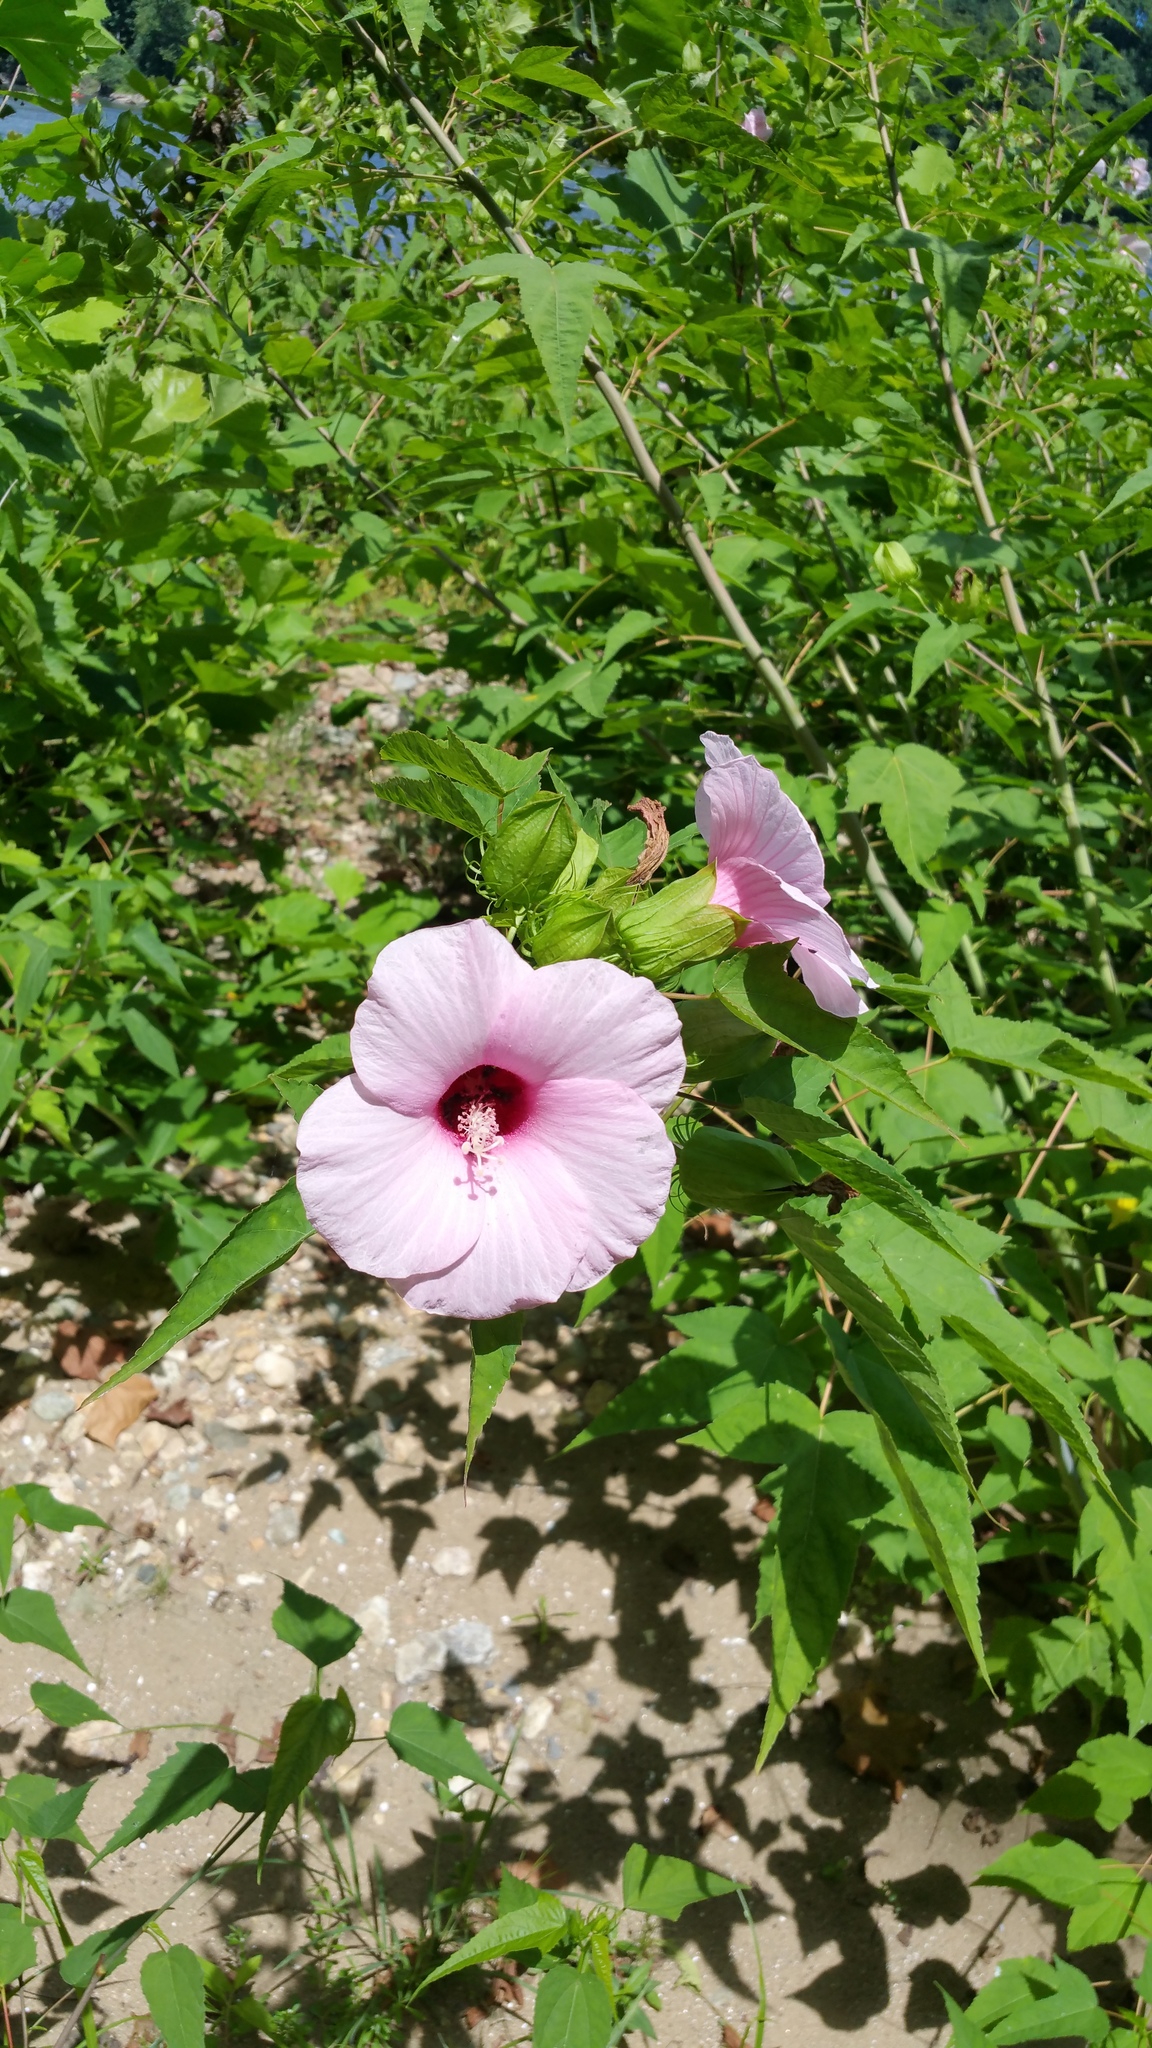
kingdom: Plantae
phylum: Tracheophyta
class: Magnoliopsida
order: Malvales
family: Malvaceae
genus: Hibiscus
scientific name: Hibiscus laevis
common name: Scarlet rose-mallow
